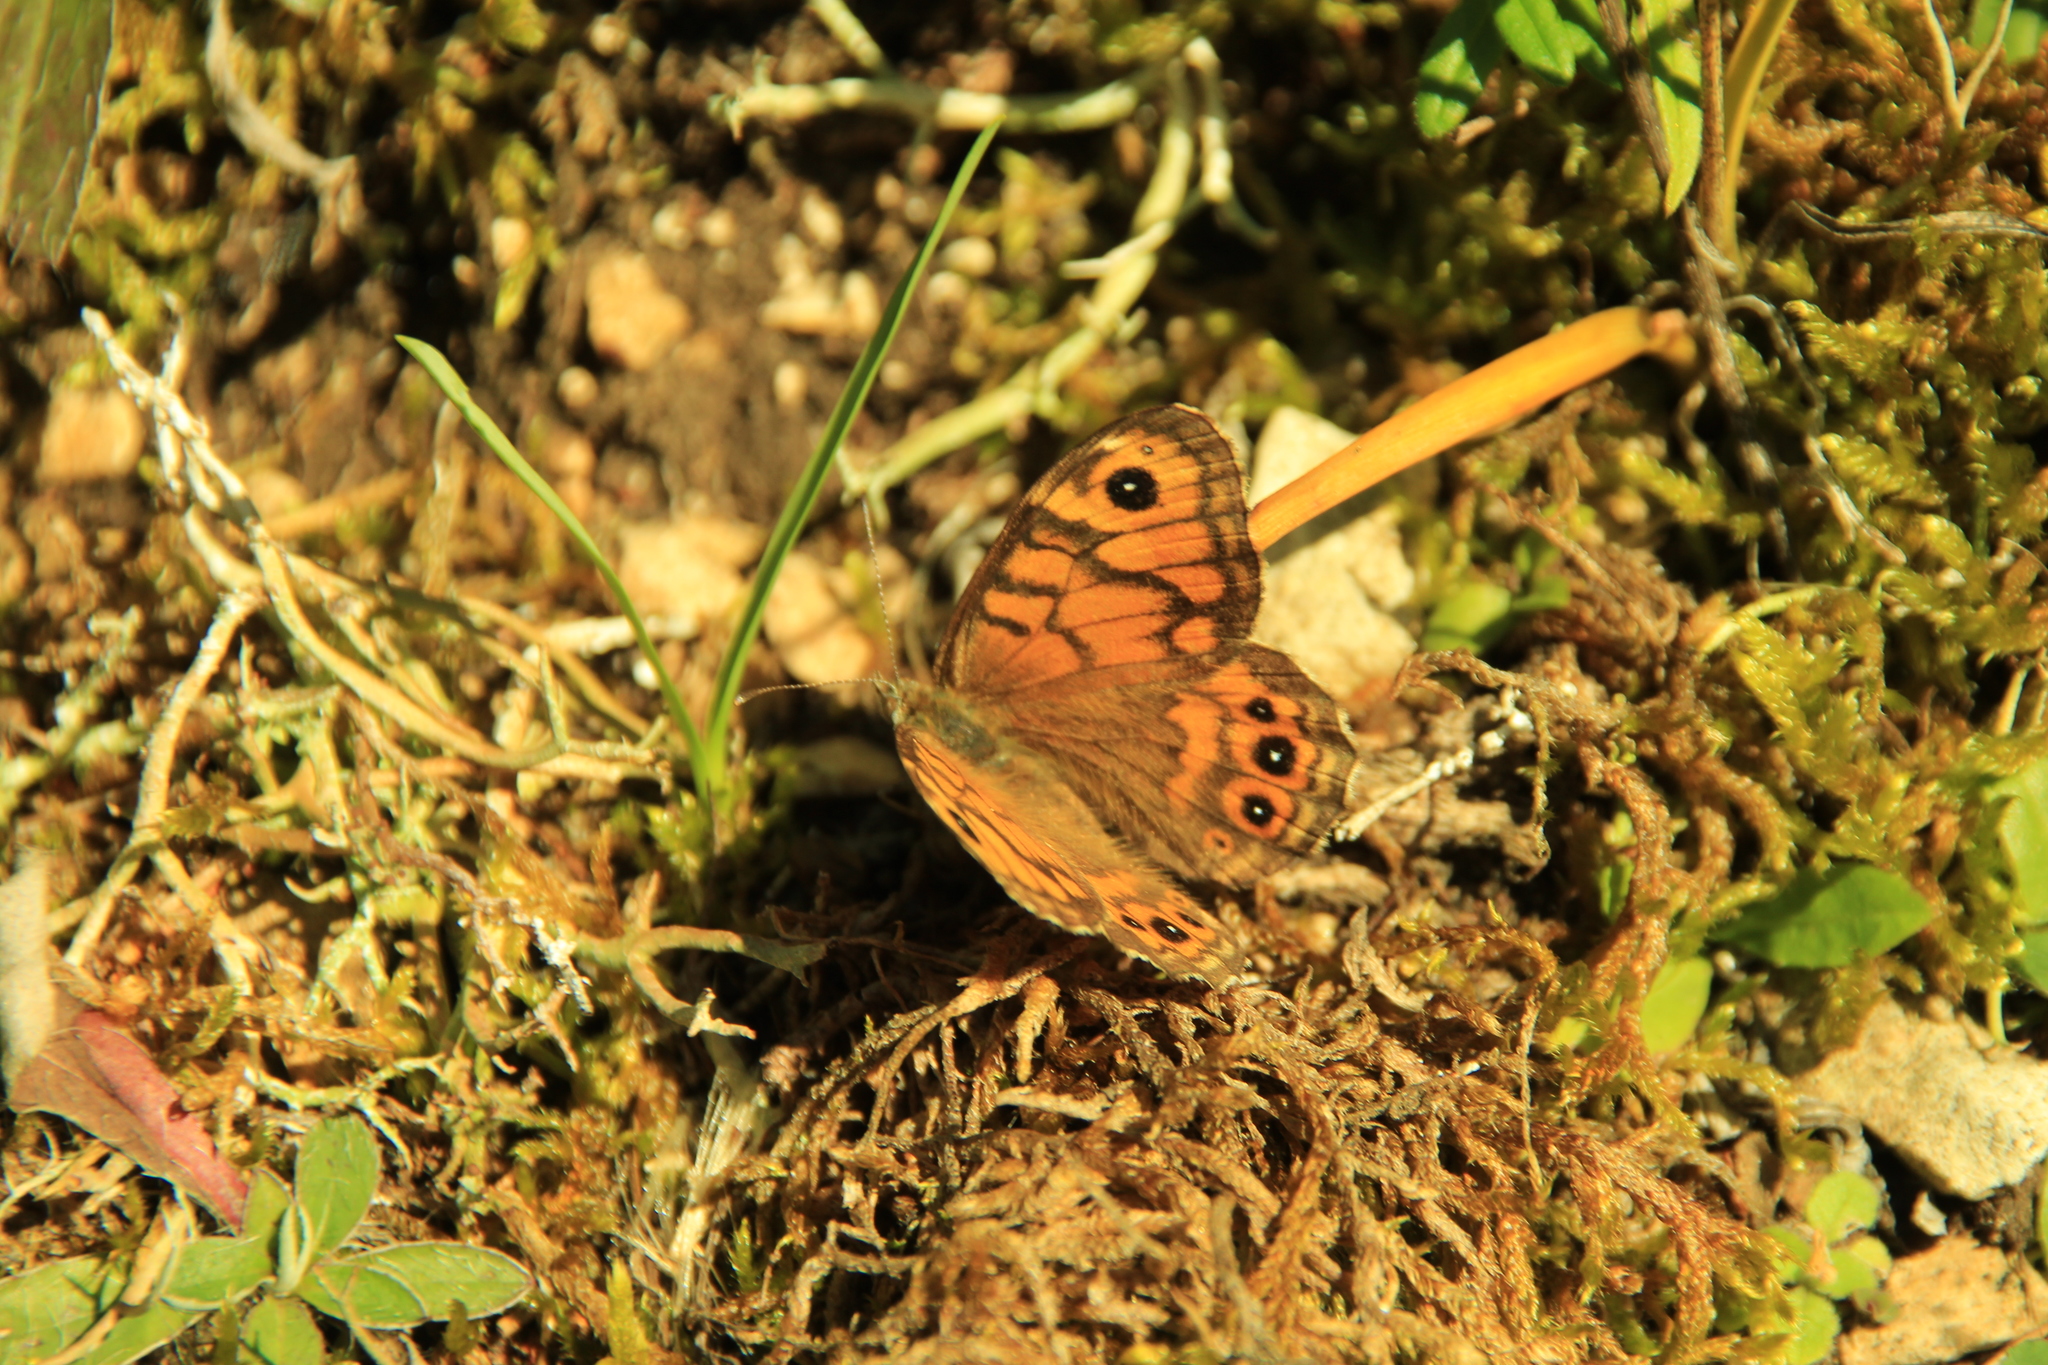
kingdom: Animalia
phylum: Arthropoda
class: Insecta
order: Lepidoptera
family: Nymphalidae
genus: Pararge
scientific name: Pararge Lasiommata megera
